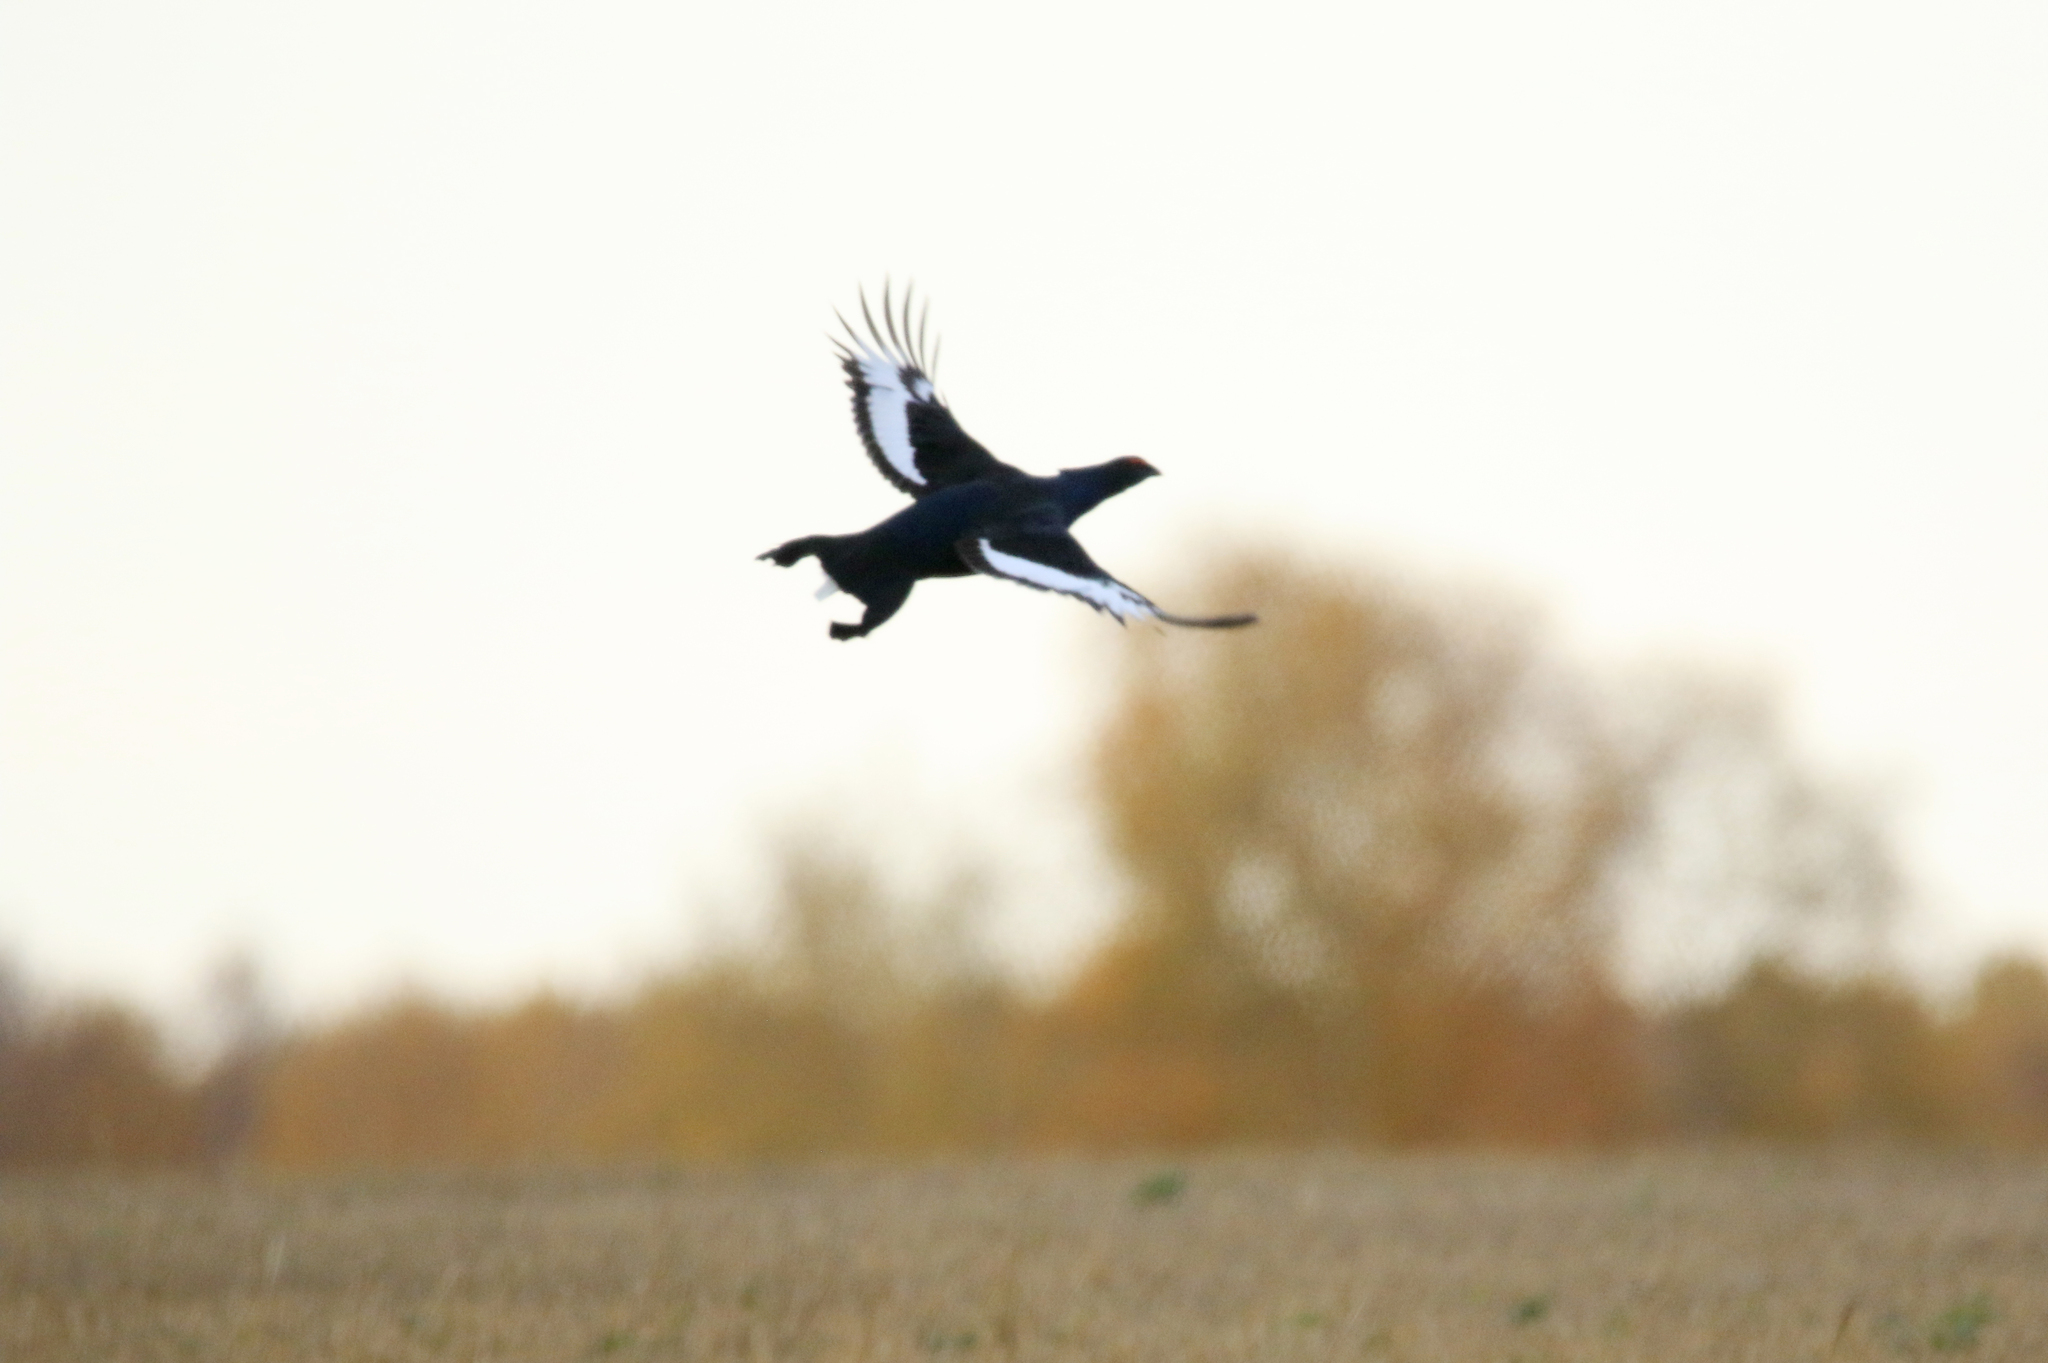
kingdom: Animalia
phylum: Chordata
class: Aves
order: Galliformes
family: Phasianidae
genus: Lyrurus
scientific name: Lyrurus tetrix
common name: Black grouse
